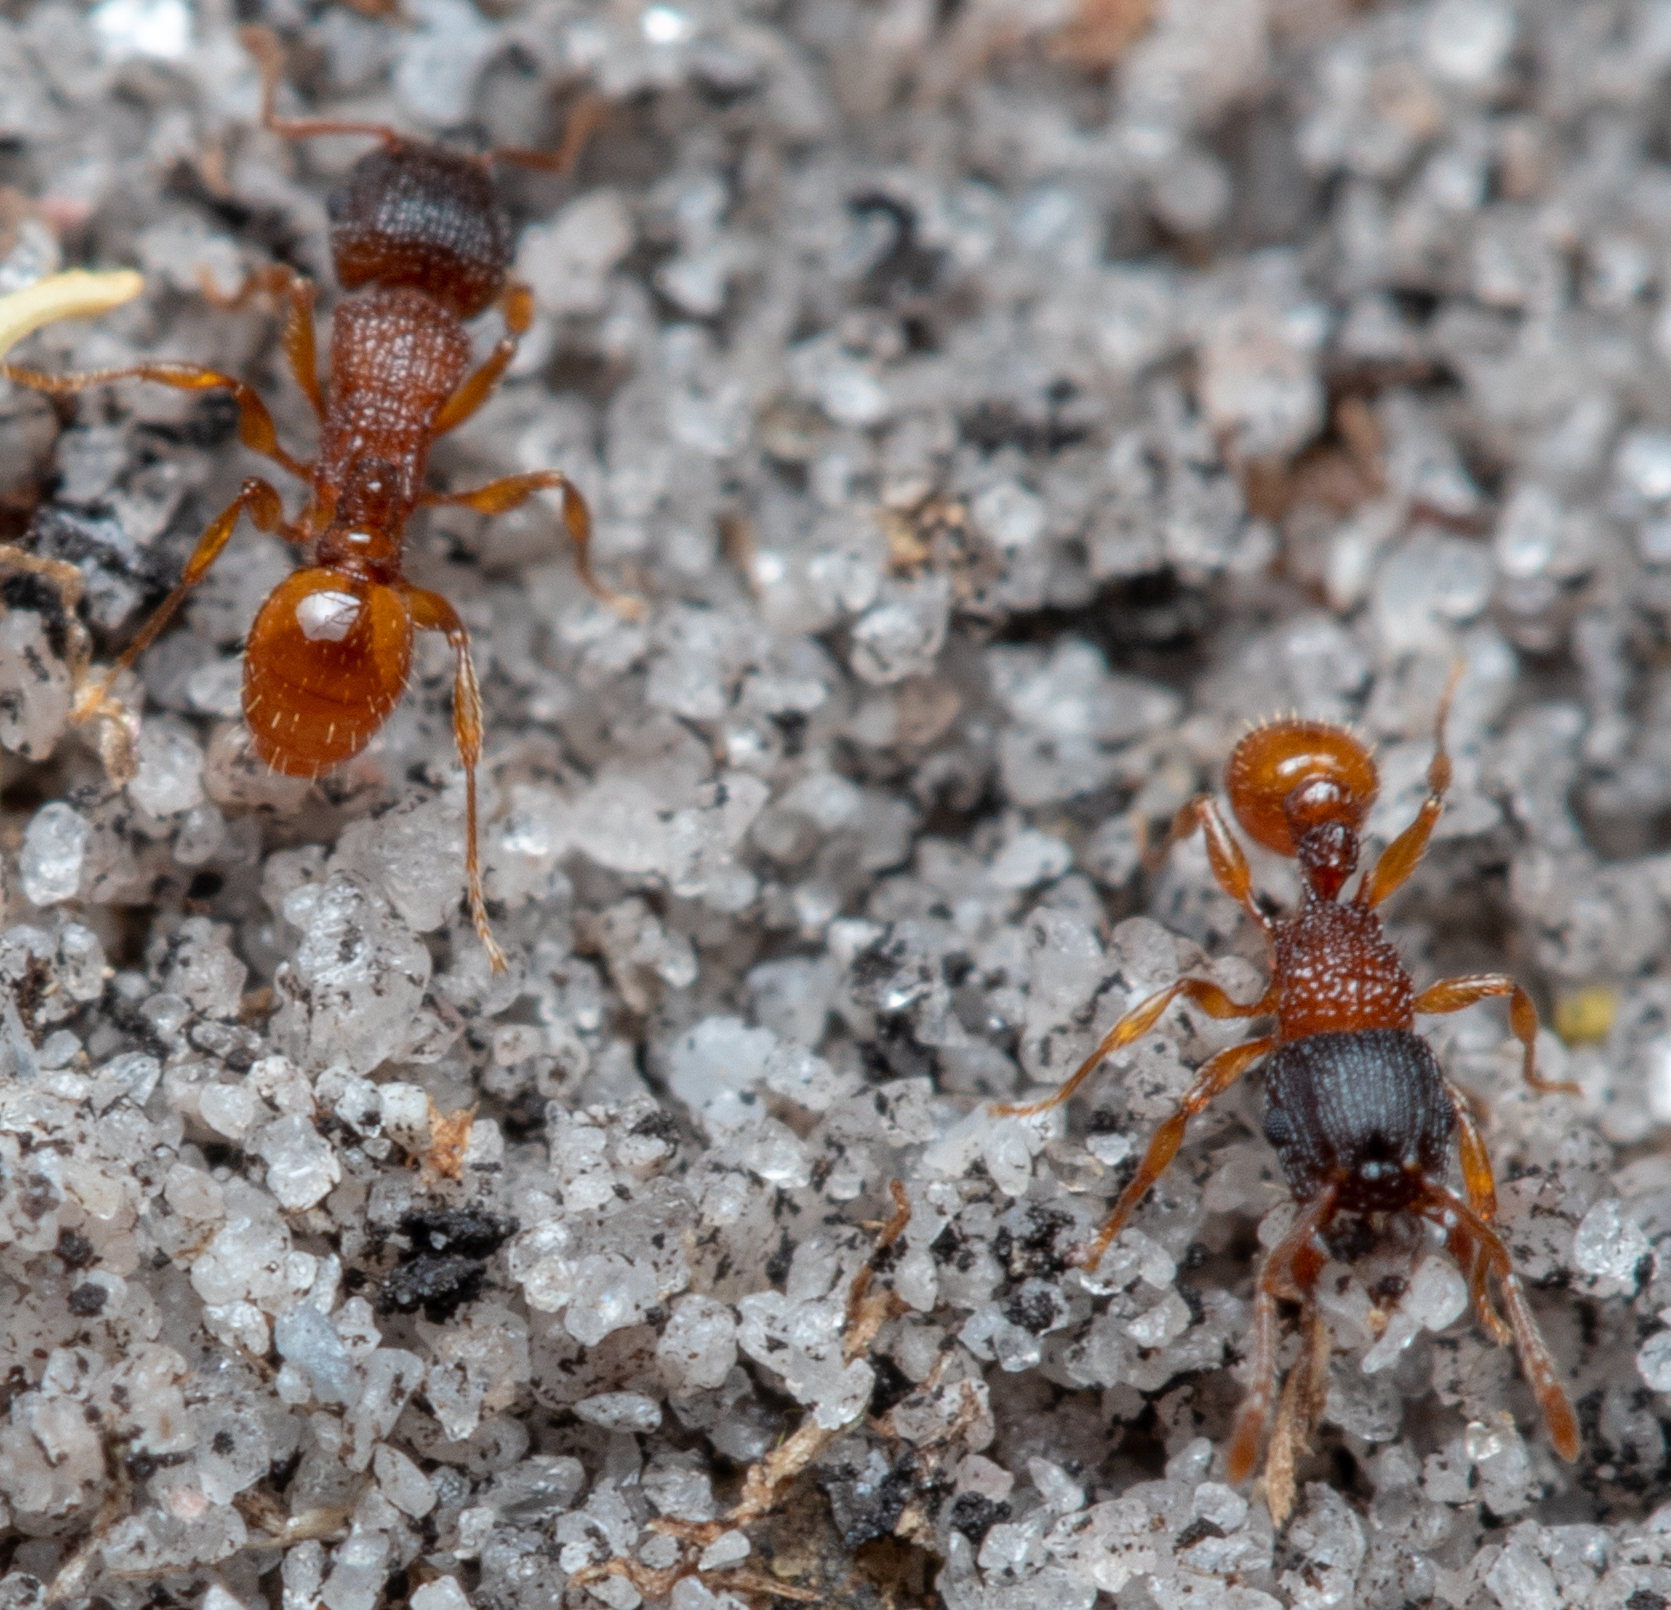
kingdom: Animalia
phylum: Arthropoda
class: Insecta
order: Hymenoptera
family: Formicidae
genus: Tetramorium
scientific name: Tetramorium fuscipes
